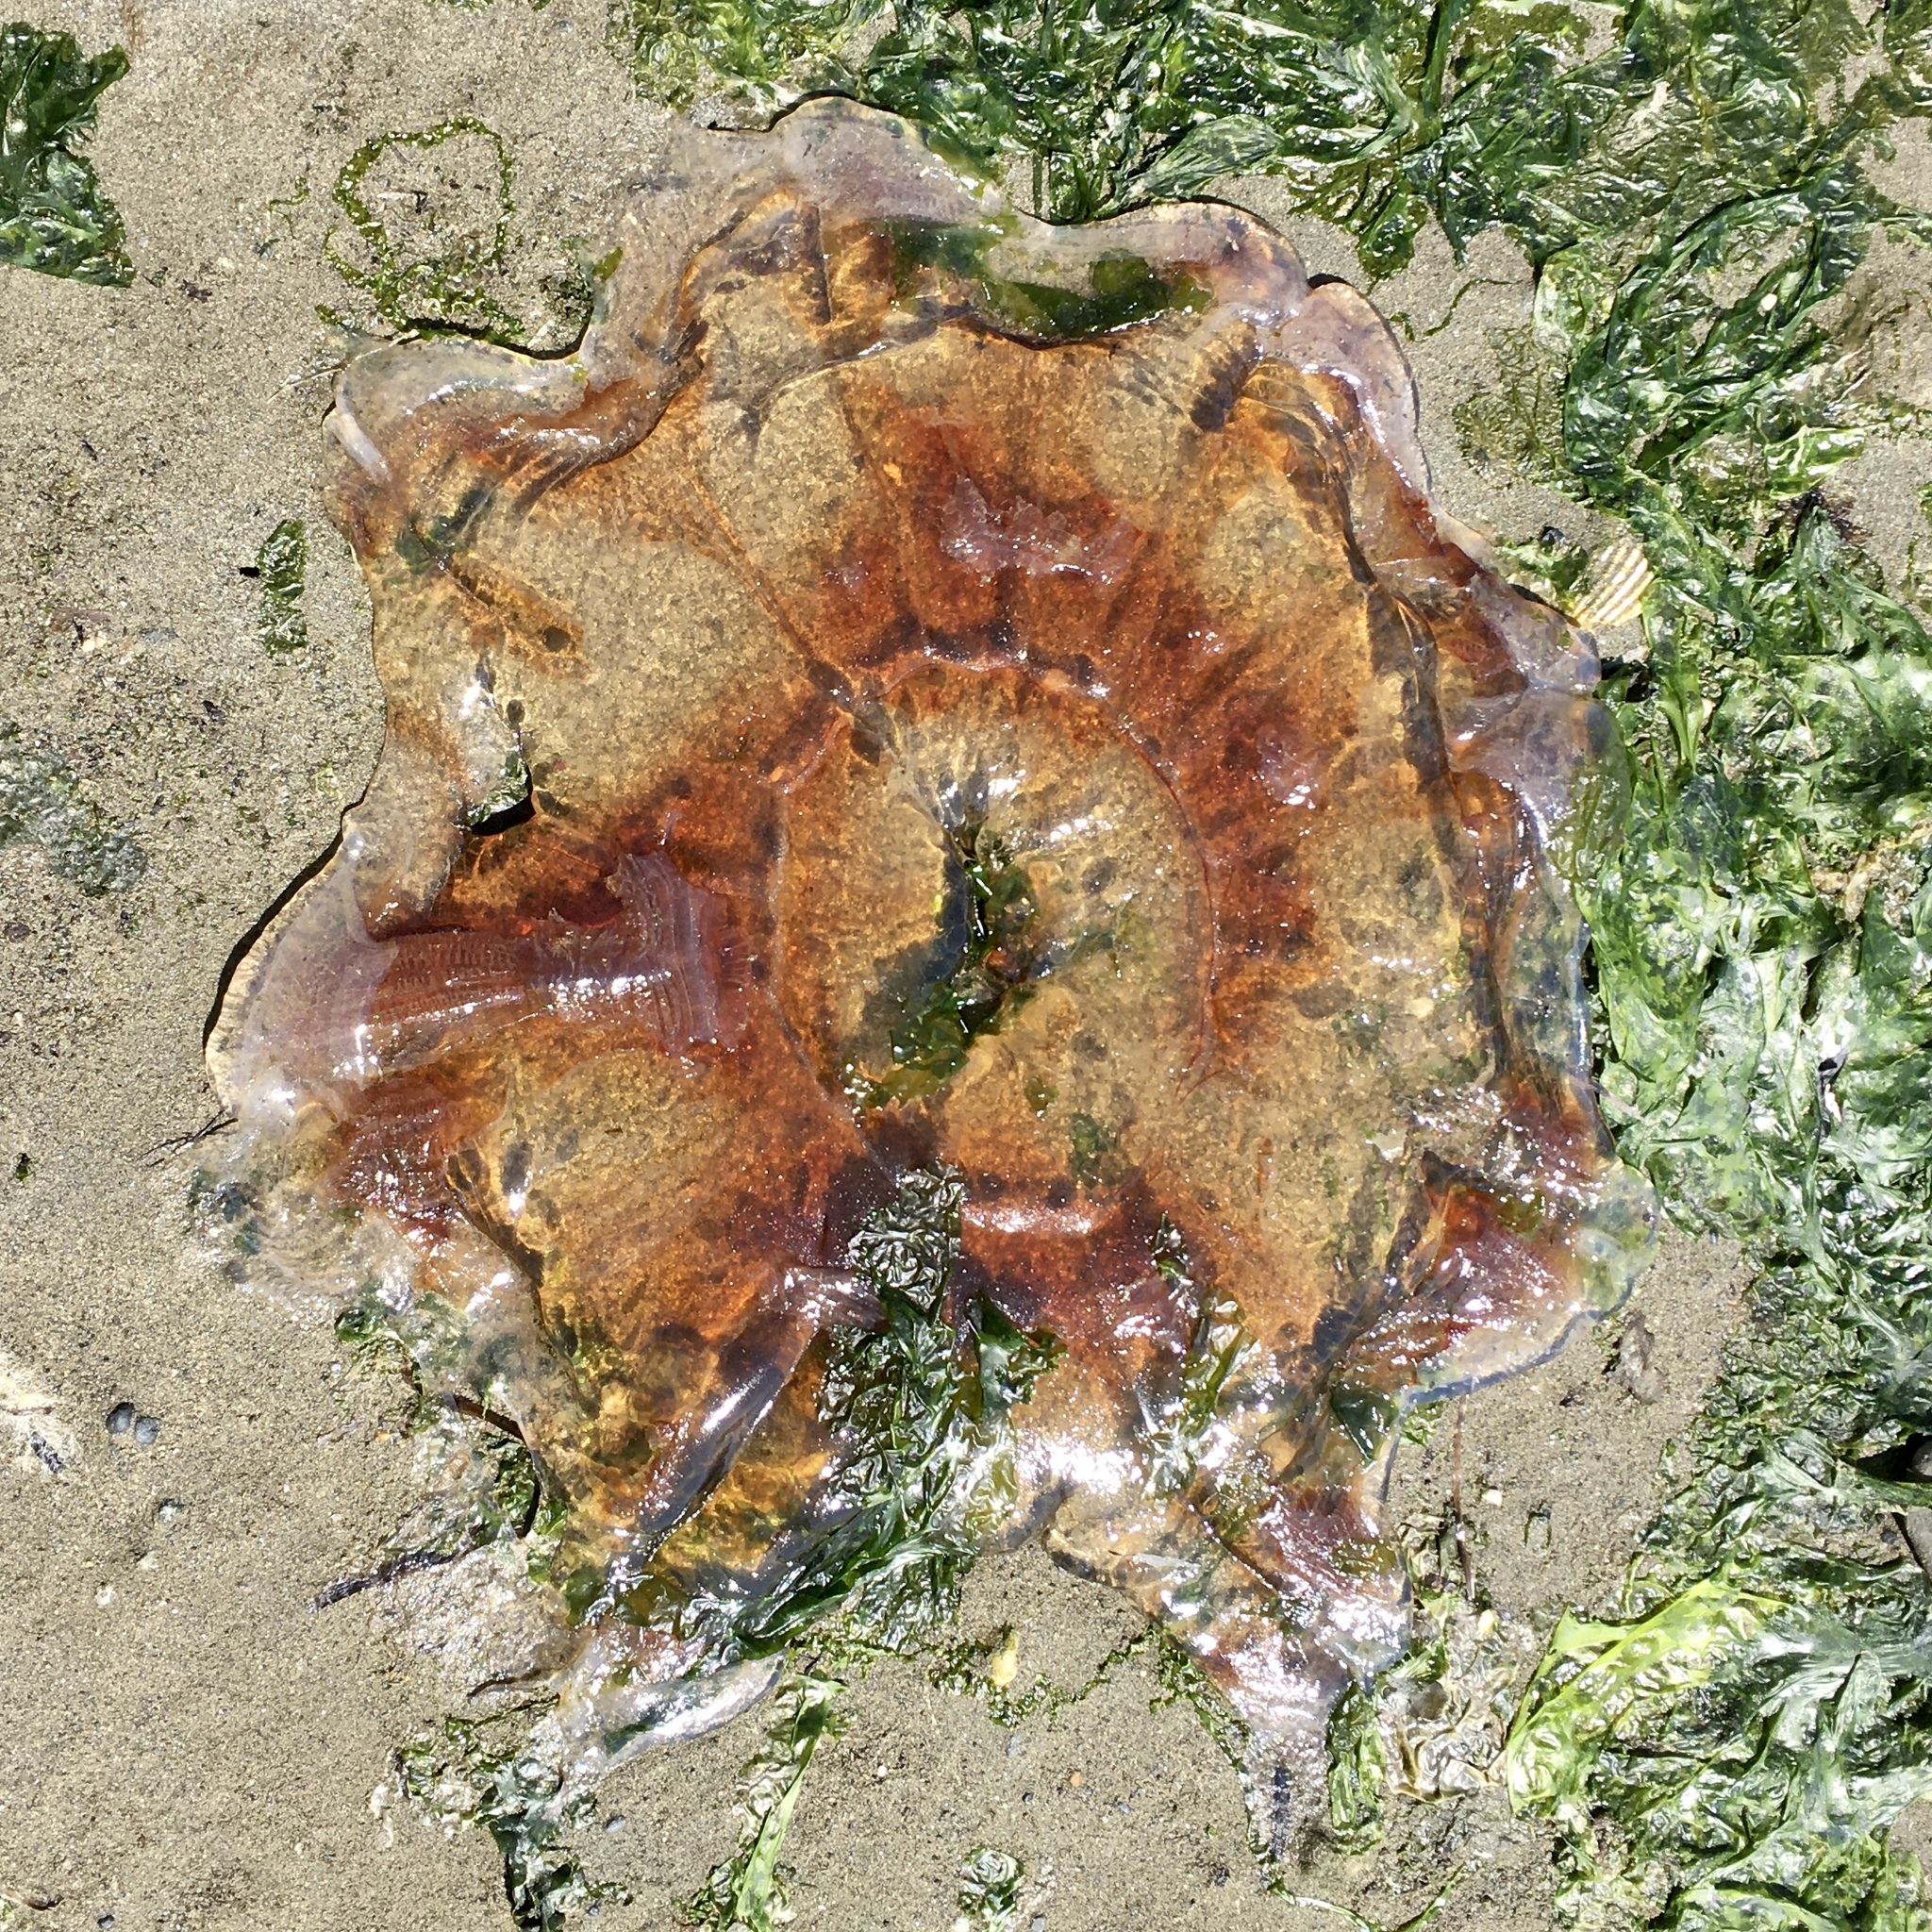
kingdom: Animalia
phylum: Cnidaria
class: Scyphozoa
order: Semaeostomeae
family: Cyaneidae
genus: Cyanea
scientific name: Cyanea ferruginea
